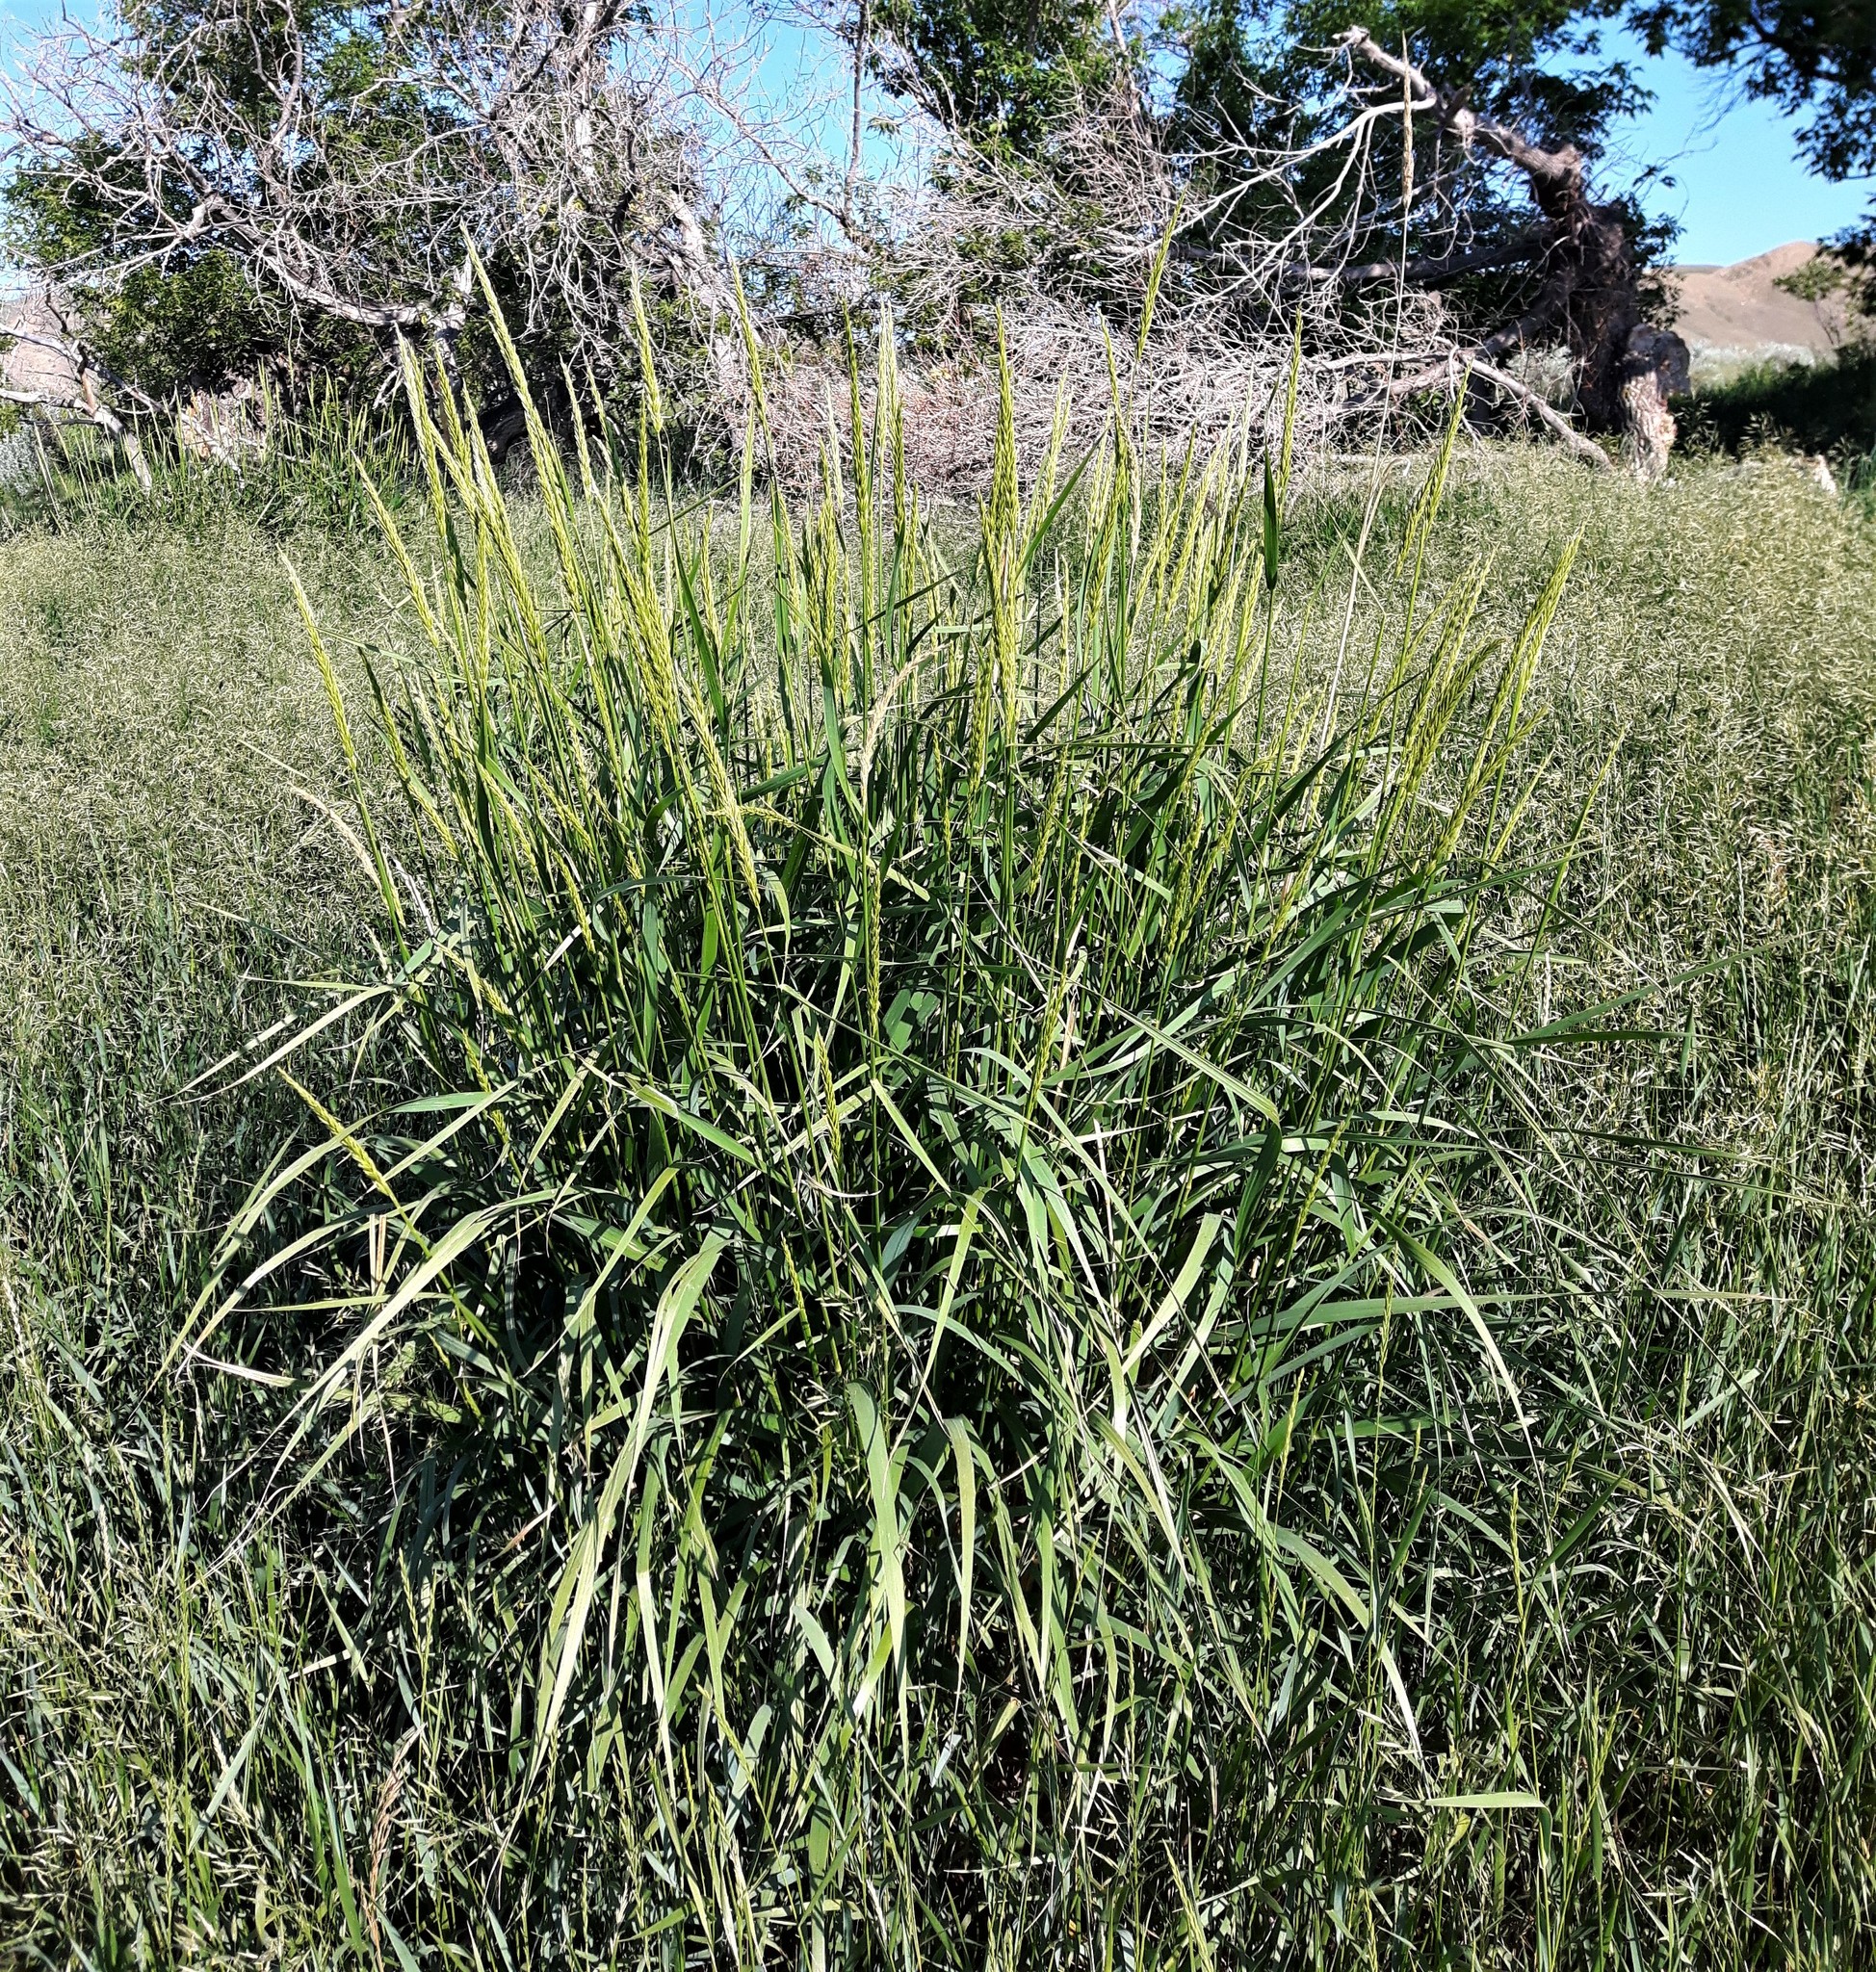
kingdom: Plantae
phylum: Tracheophyta
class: Liliopsida
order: Poales
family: Poaceae
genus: Leymus
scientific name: Leymus cinereus
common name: Basin wild rye
